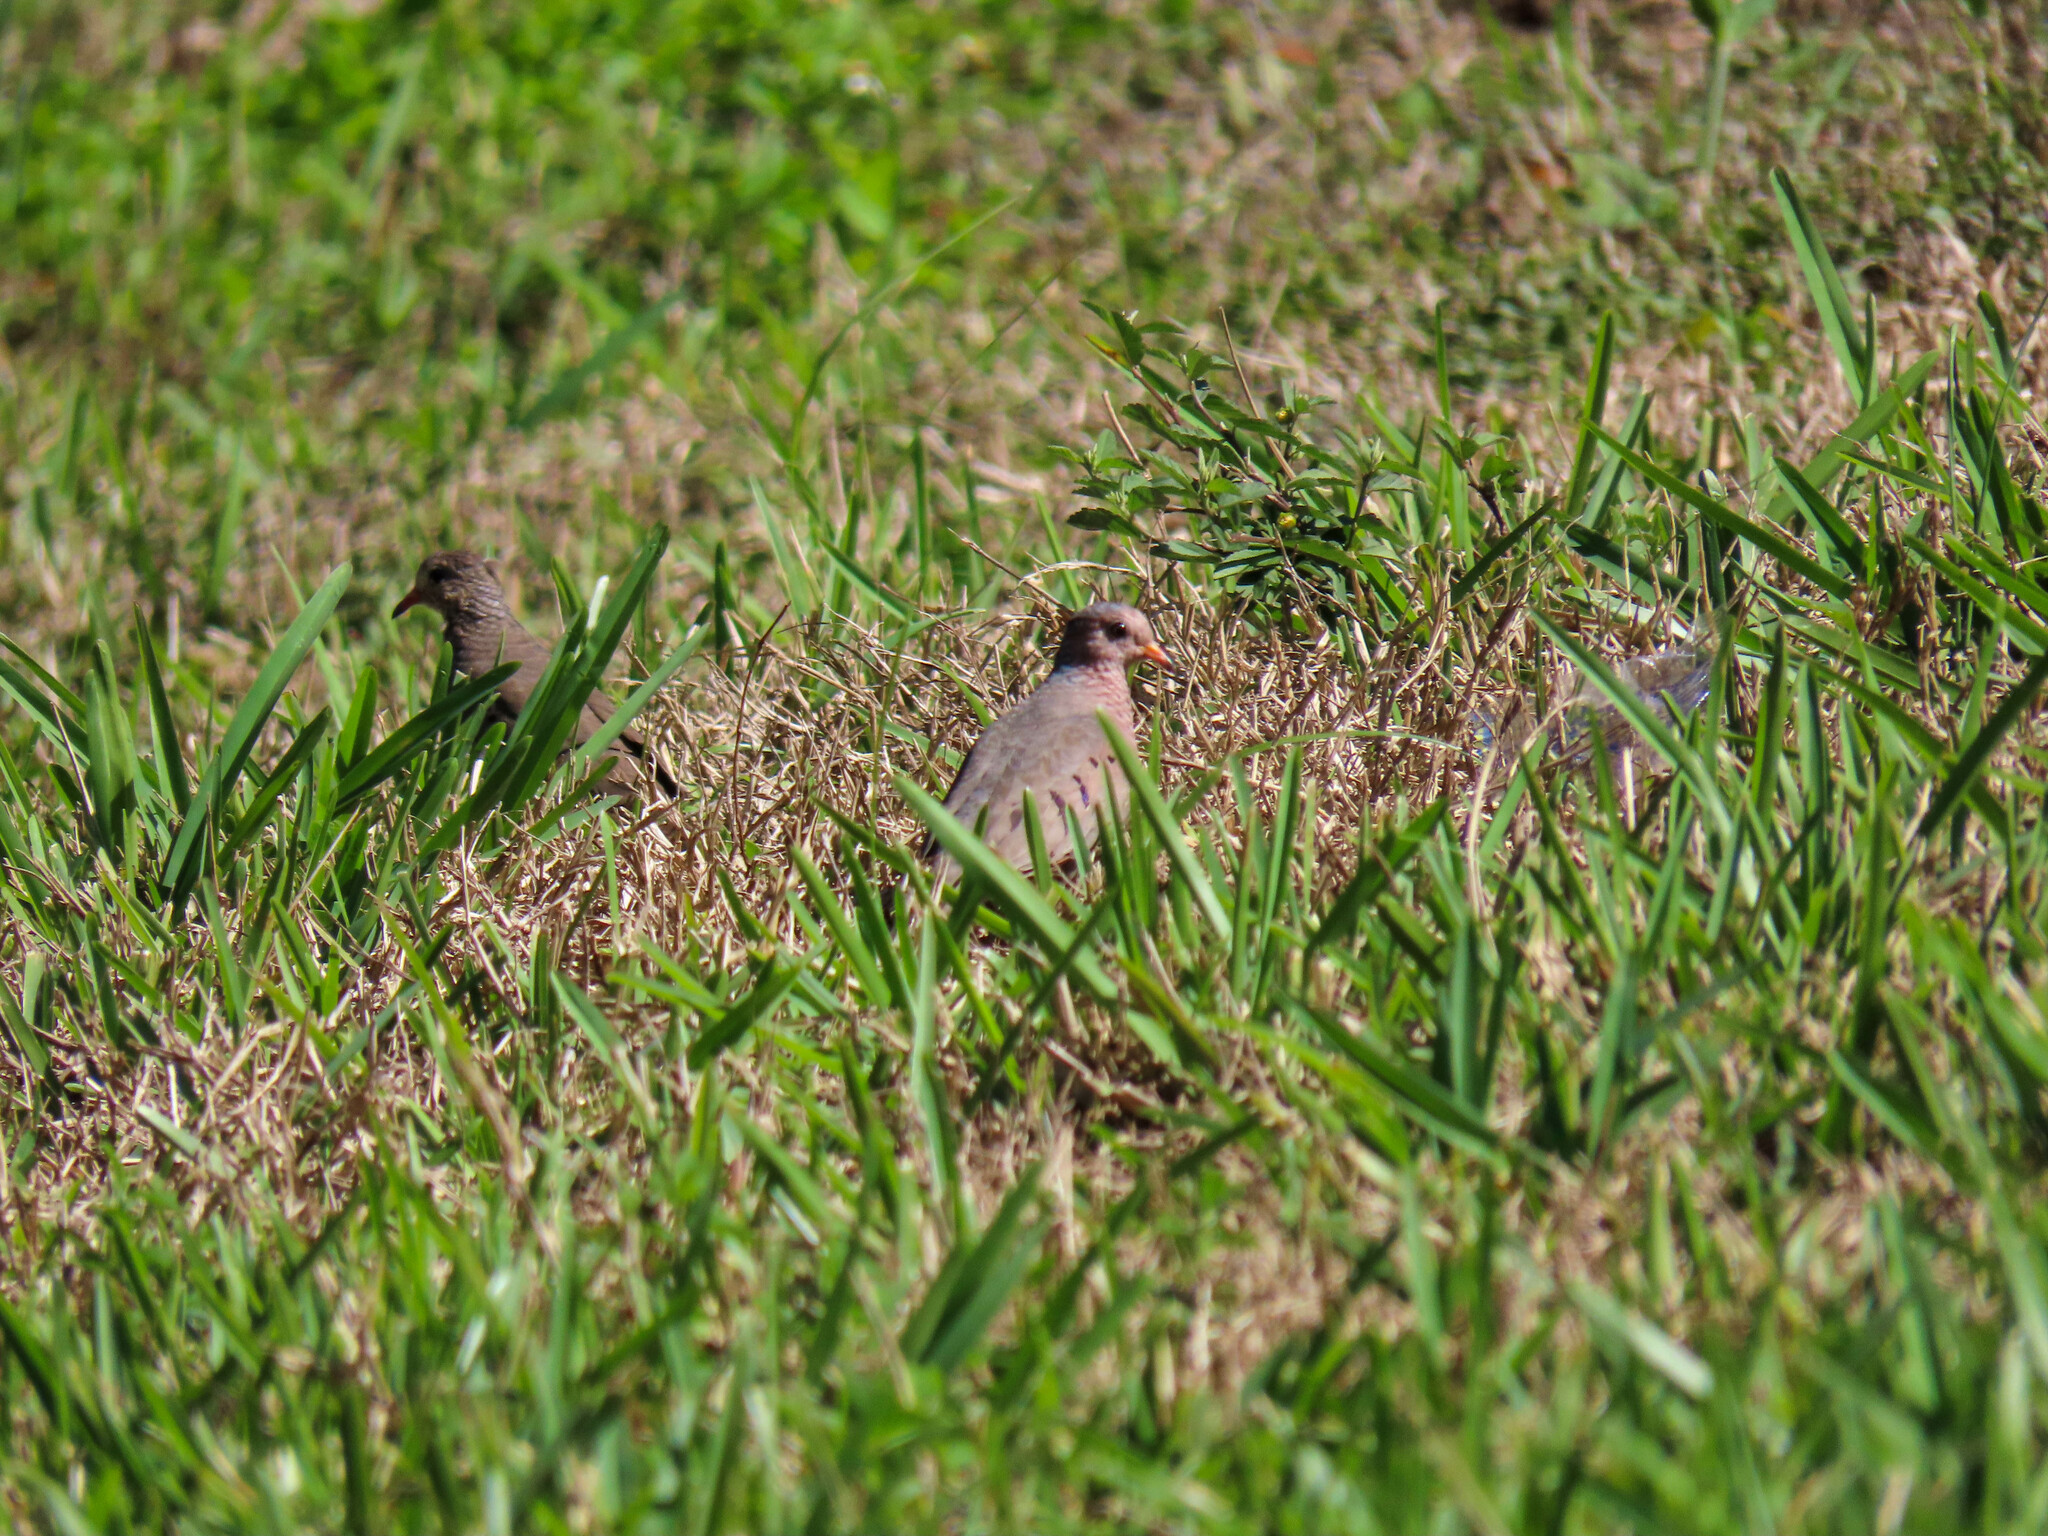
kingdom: Animalia
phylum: Chordata
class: Aves
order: Columbiformes
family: Columbidae
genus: Columbina
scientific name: Columbina passerina
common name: Common ground-dove
